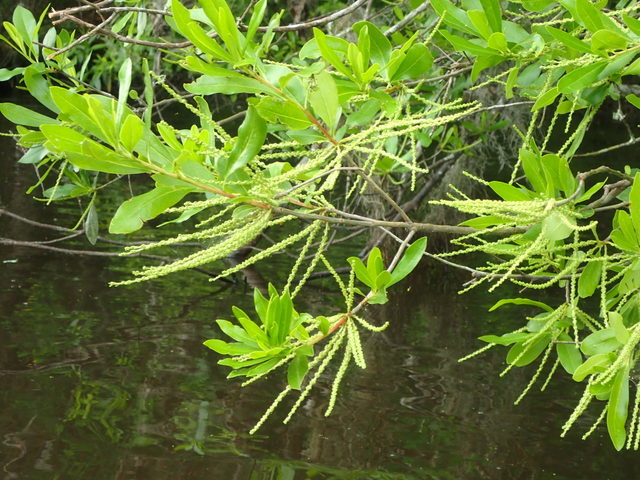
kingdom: Plantae
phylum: Tracheophyta
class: Magnoliopsida
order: Ericales
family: Cyrillaceae
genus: Cyrilla
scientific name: Cyrilla racemiflora
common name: Black titi
